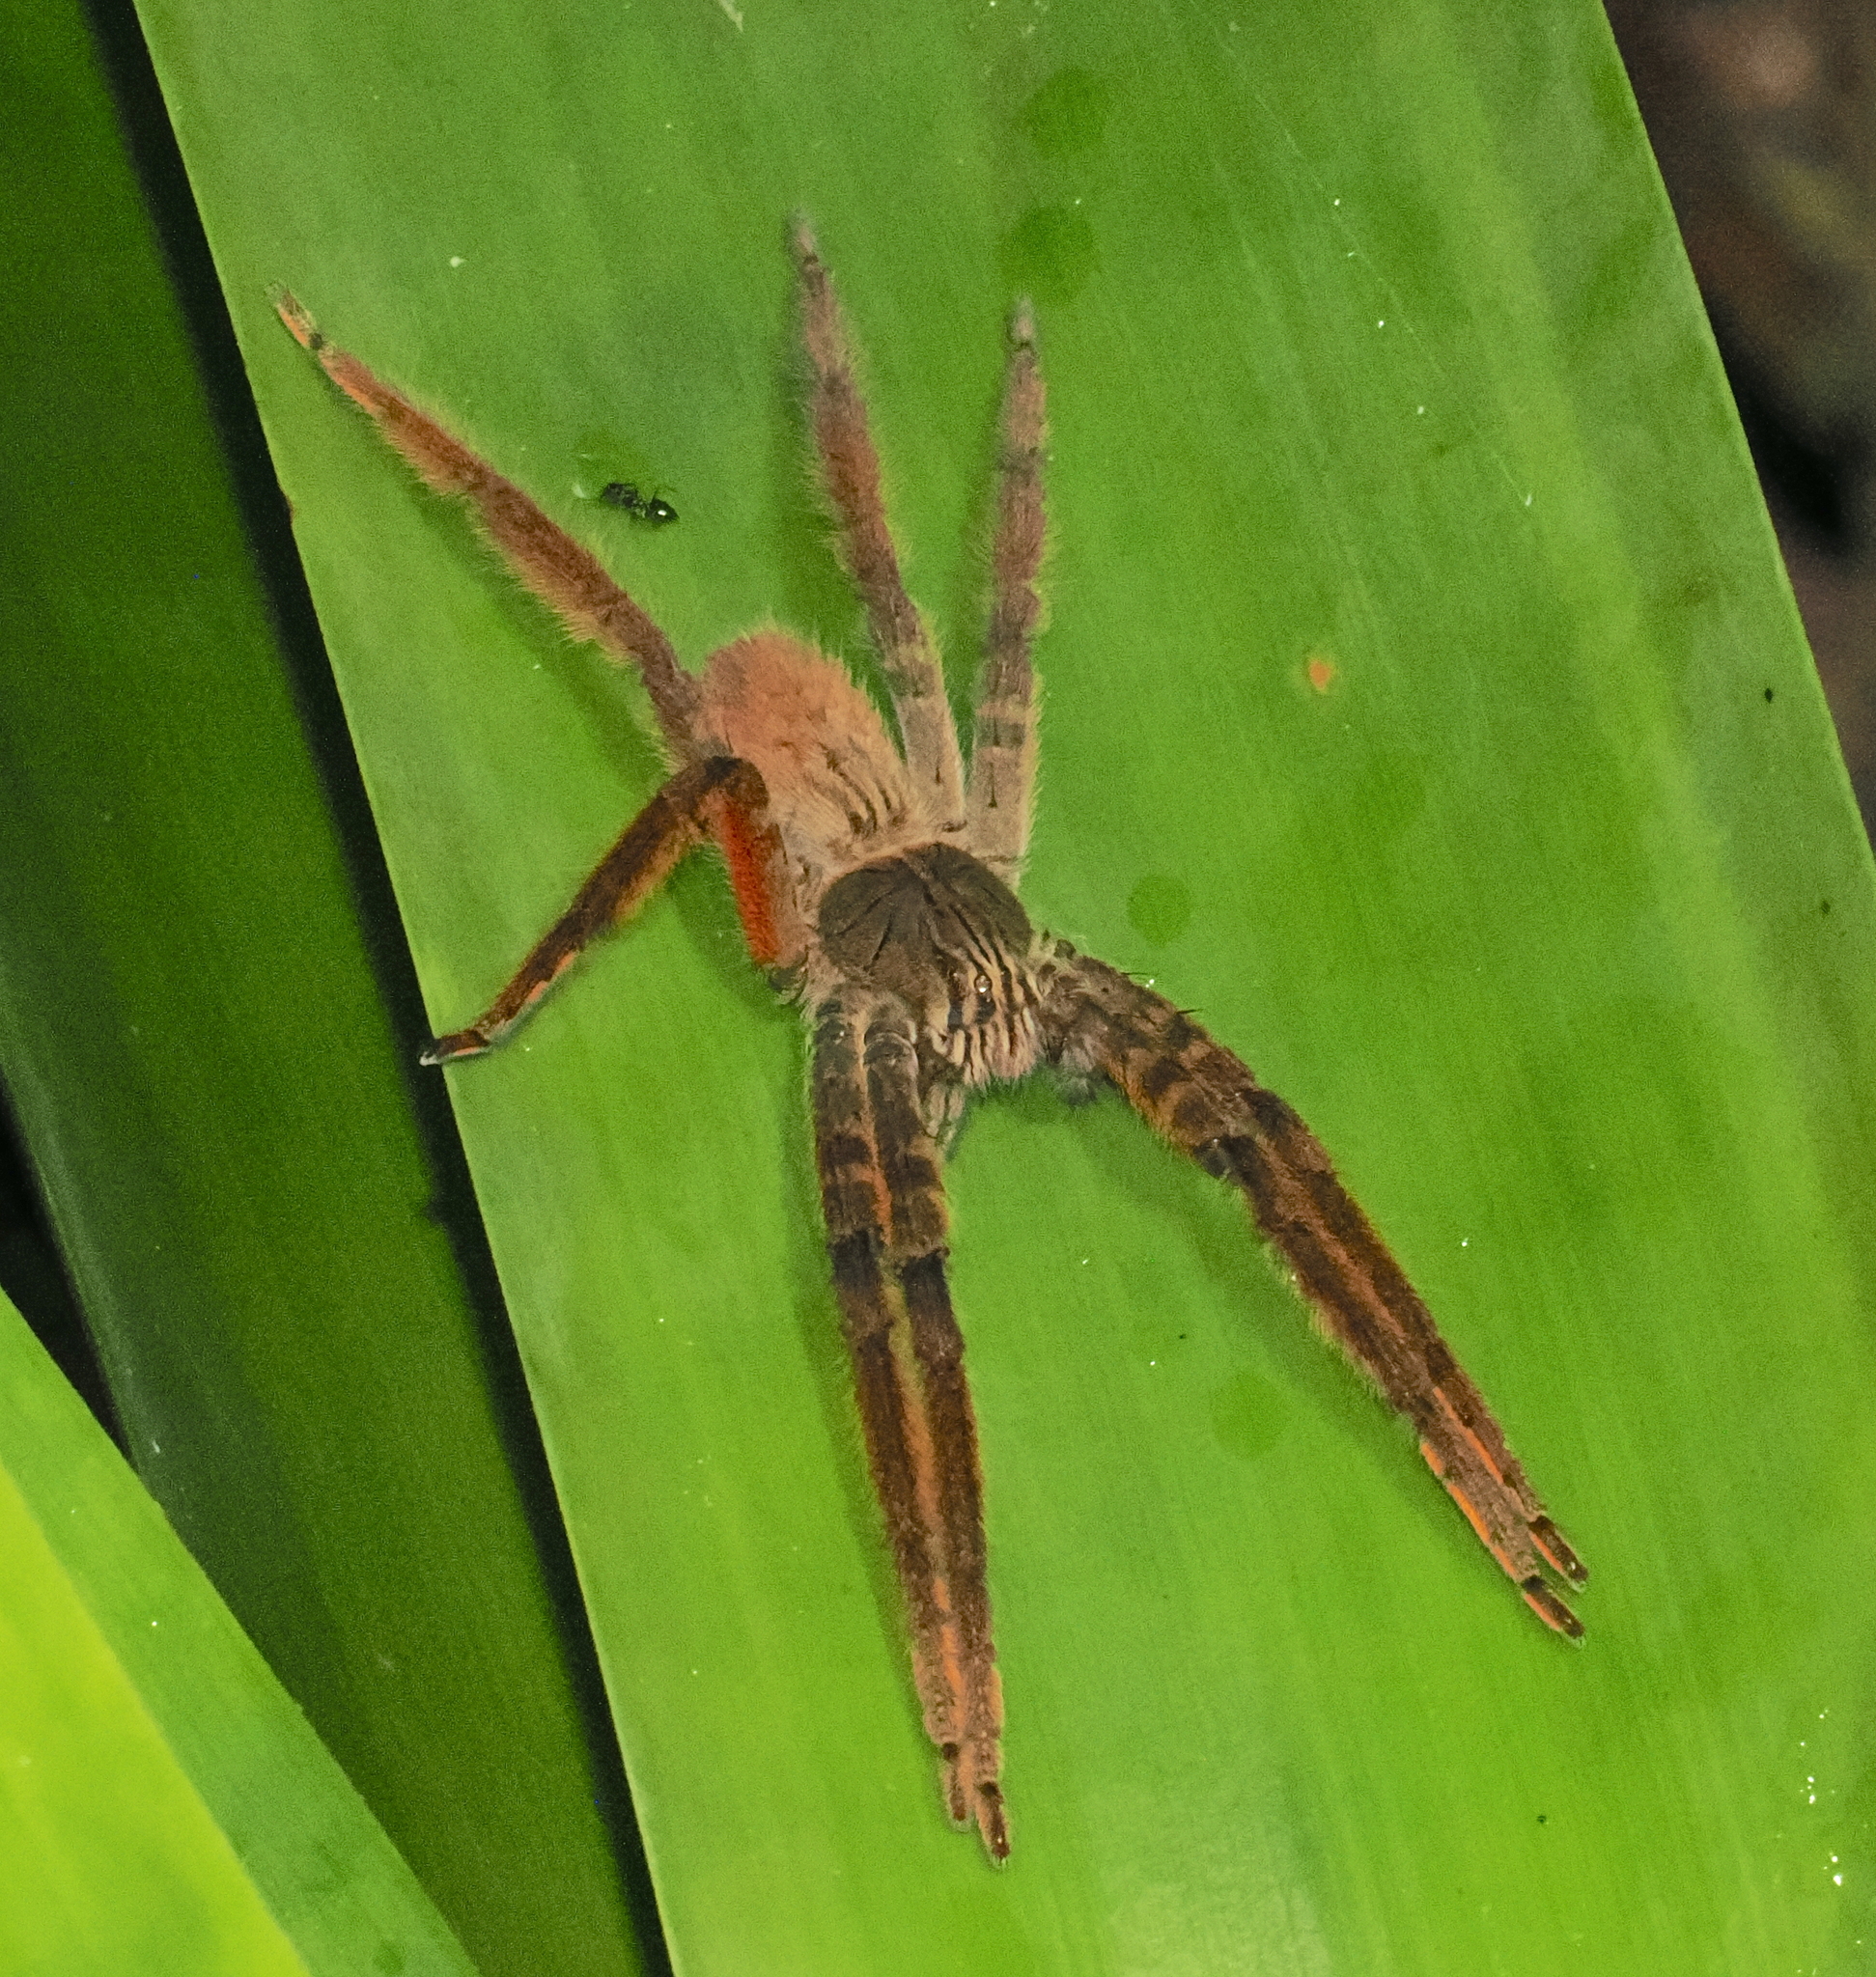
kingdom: Animalia
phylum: Arthropoda
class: Arachnida
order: Araneae
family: Trechaleidae
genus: Cupiennius
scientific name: Cupiennius coccineus
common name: Wandering spiders
